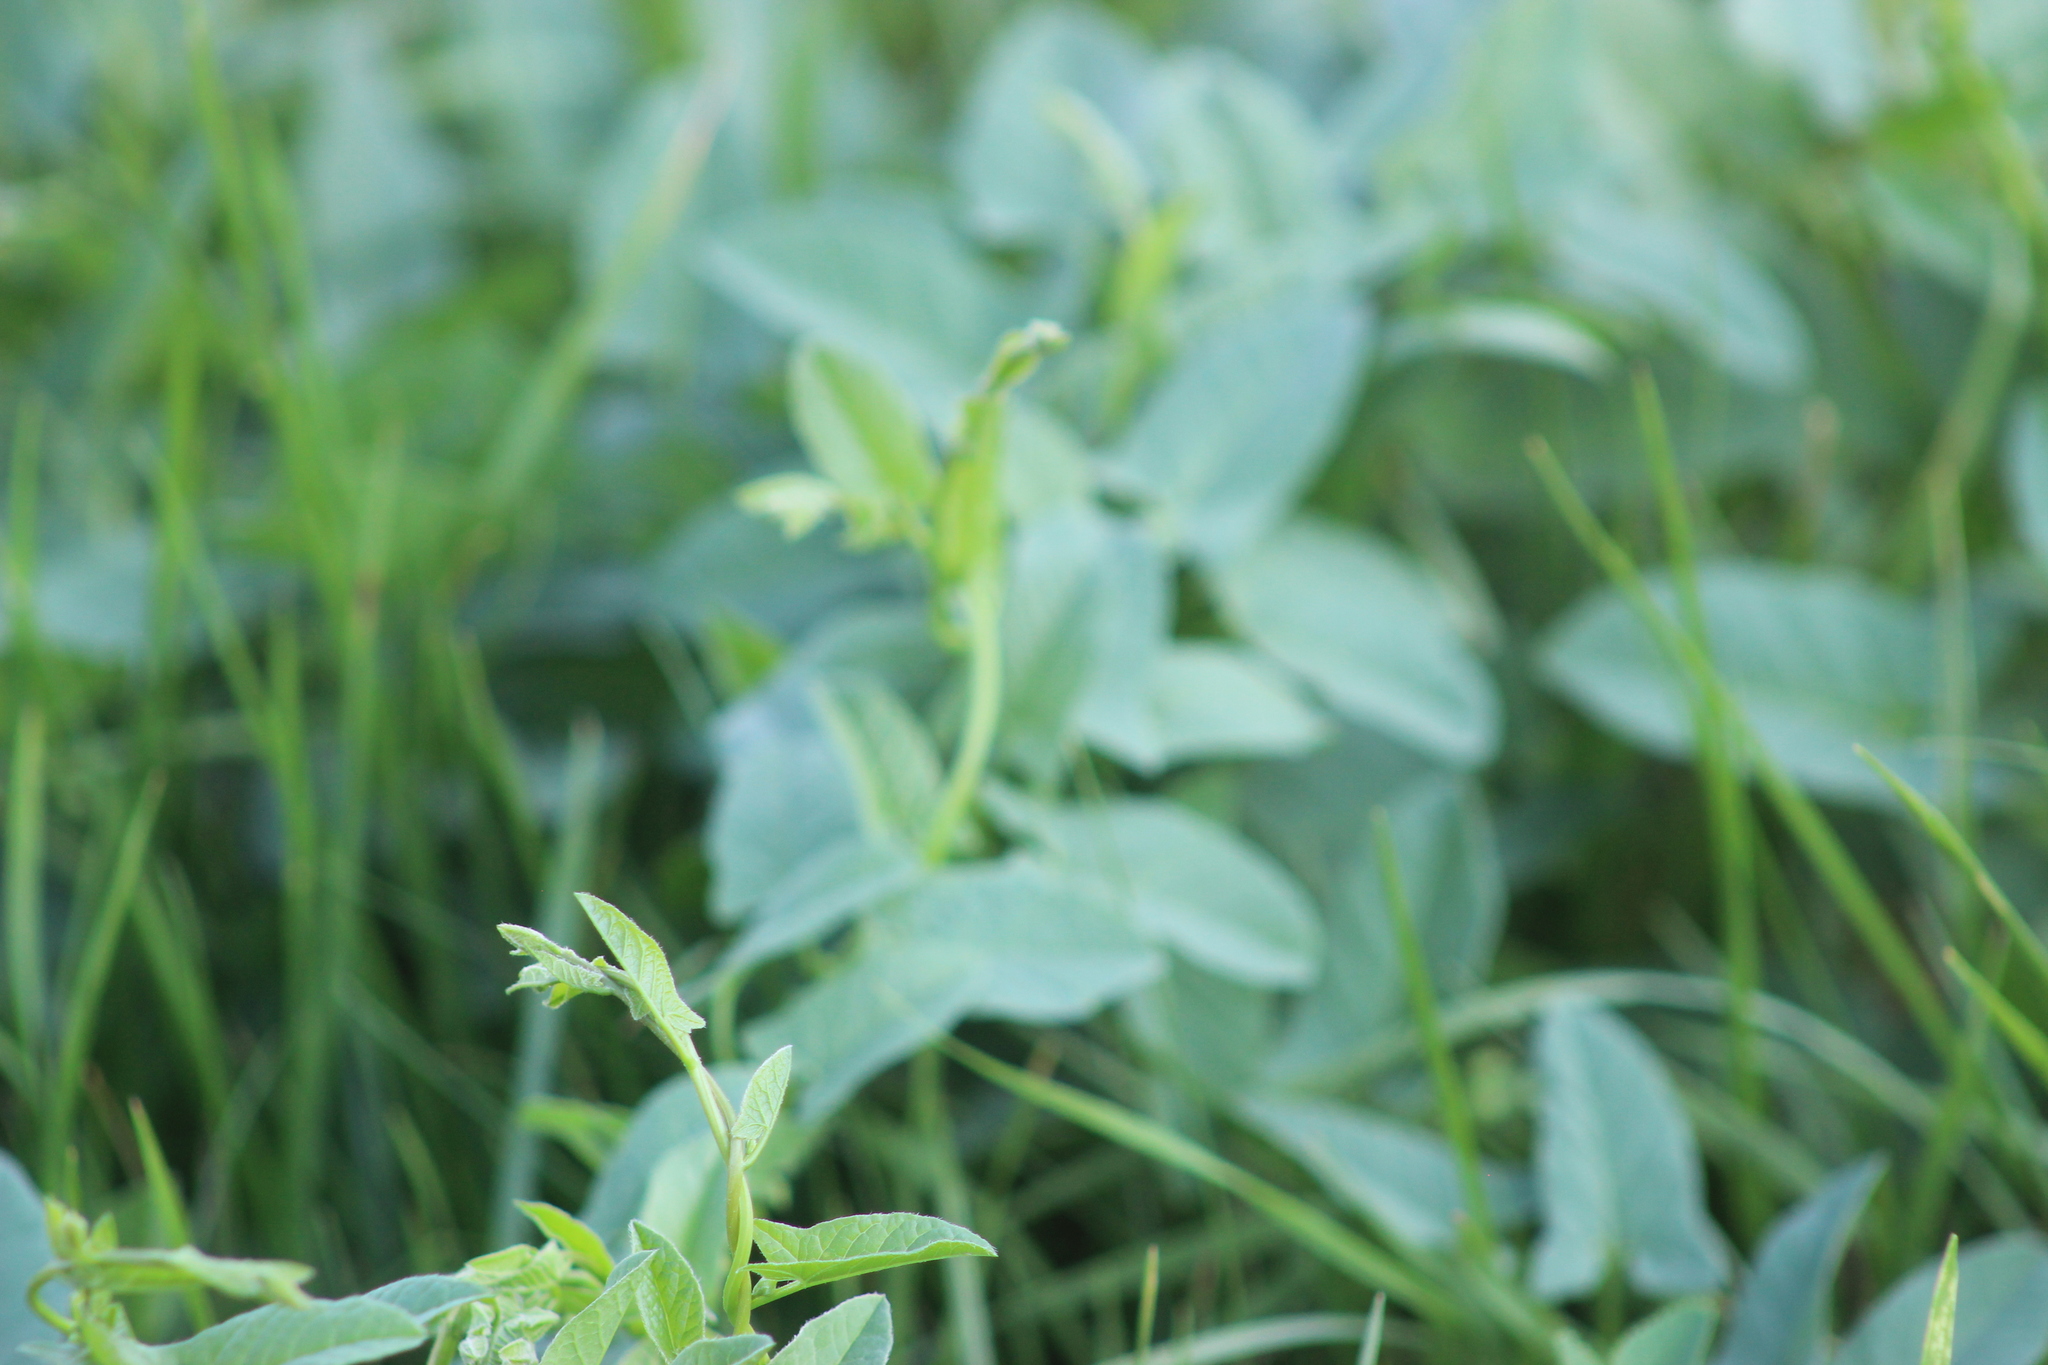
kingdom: Plantae
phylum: Tracheophyta
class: Magnoliopsida
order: Solanales
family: Convolvulaceae
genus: Convolvulus
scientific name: Convolvulus arvensis
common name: Field bindweed
